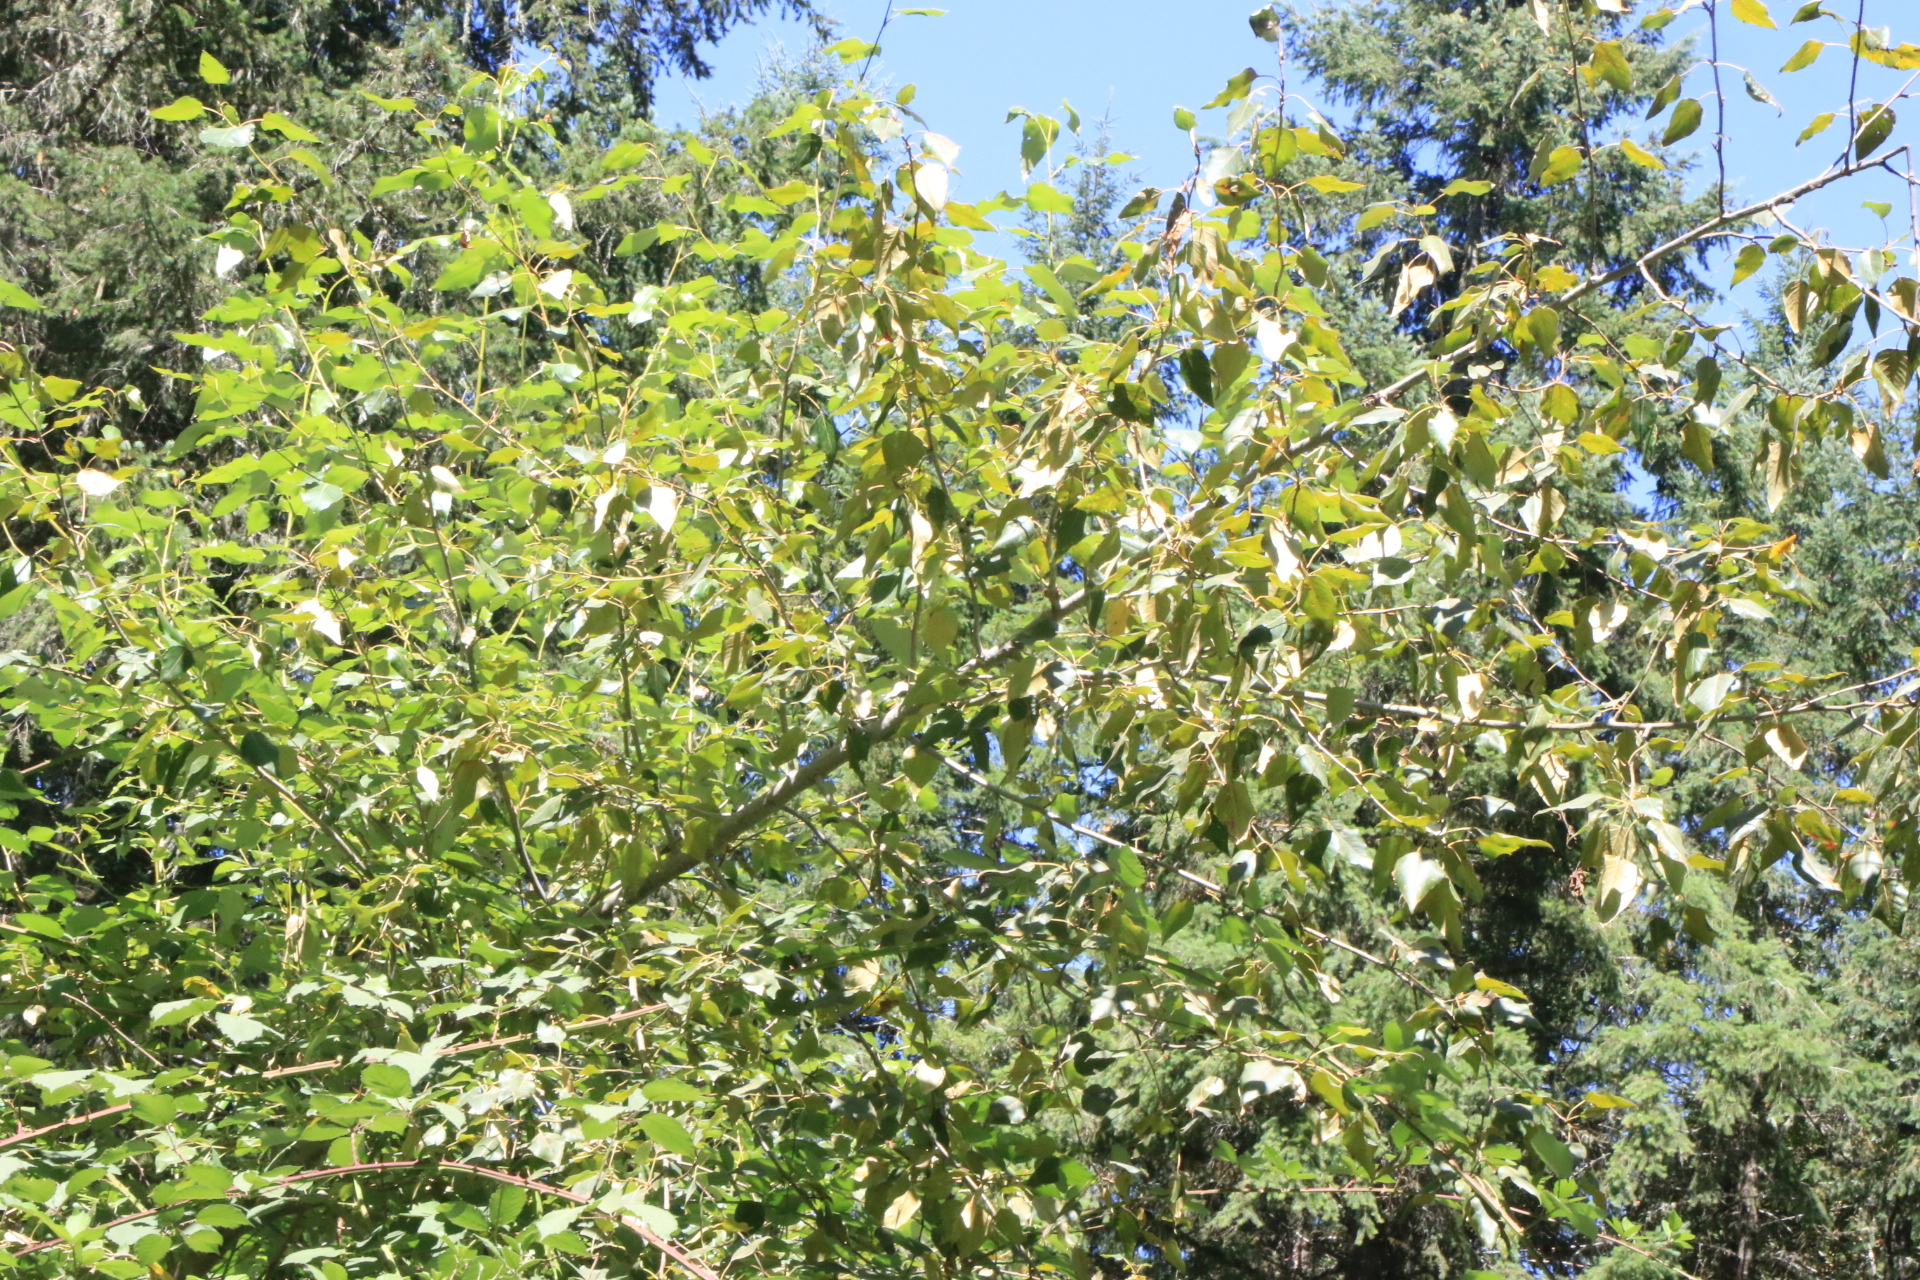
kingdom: Plantae
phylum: Tracheophyta
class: Magnoliopsida
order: Malpighiales
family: Salicaceae
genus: Populus
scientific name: Populus trichocarpa
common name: Black cottonwood
